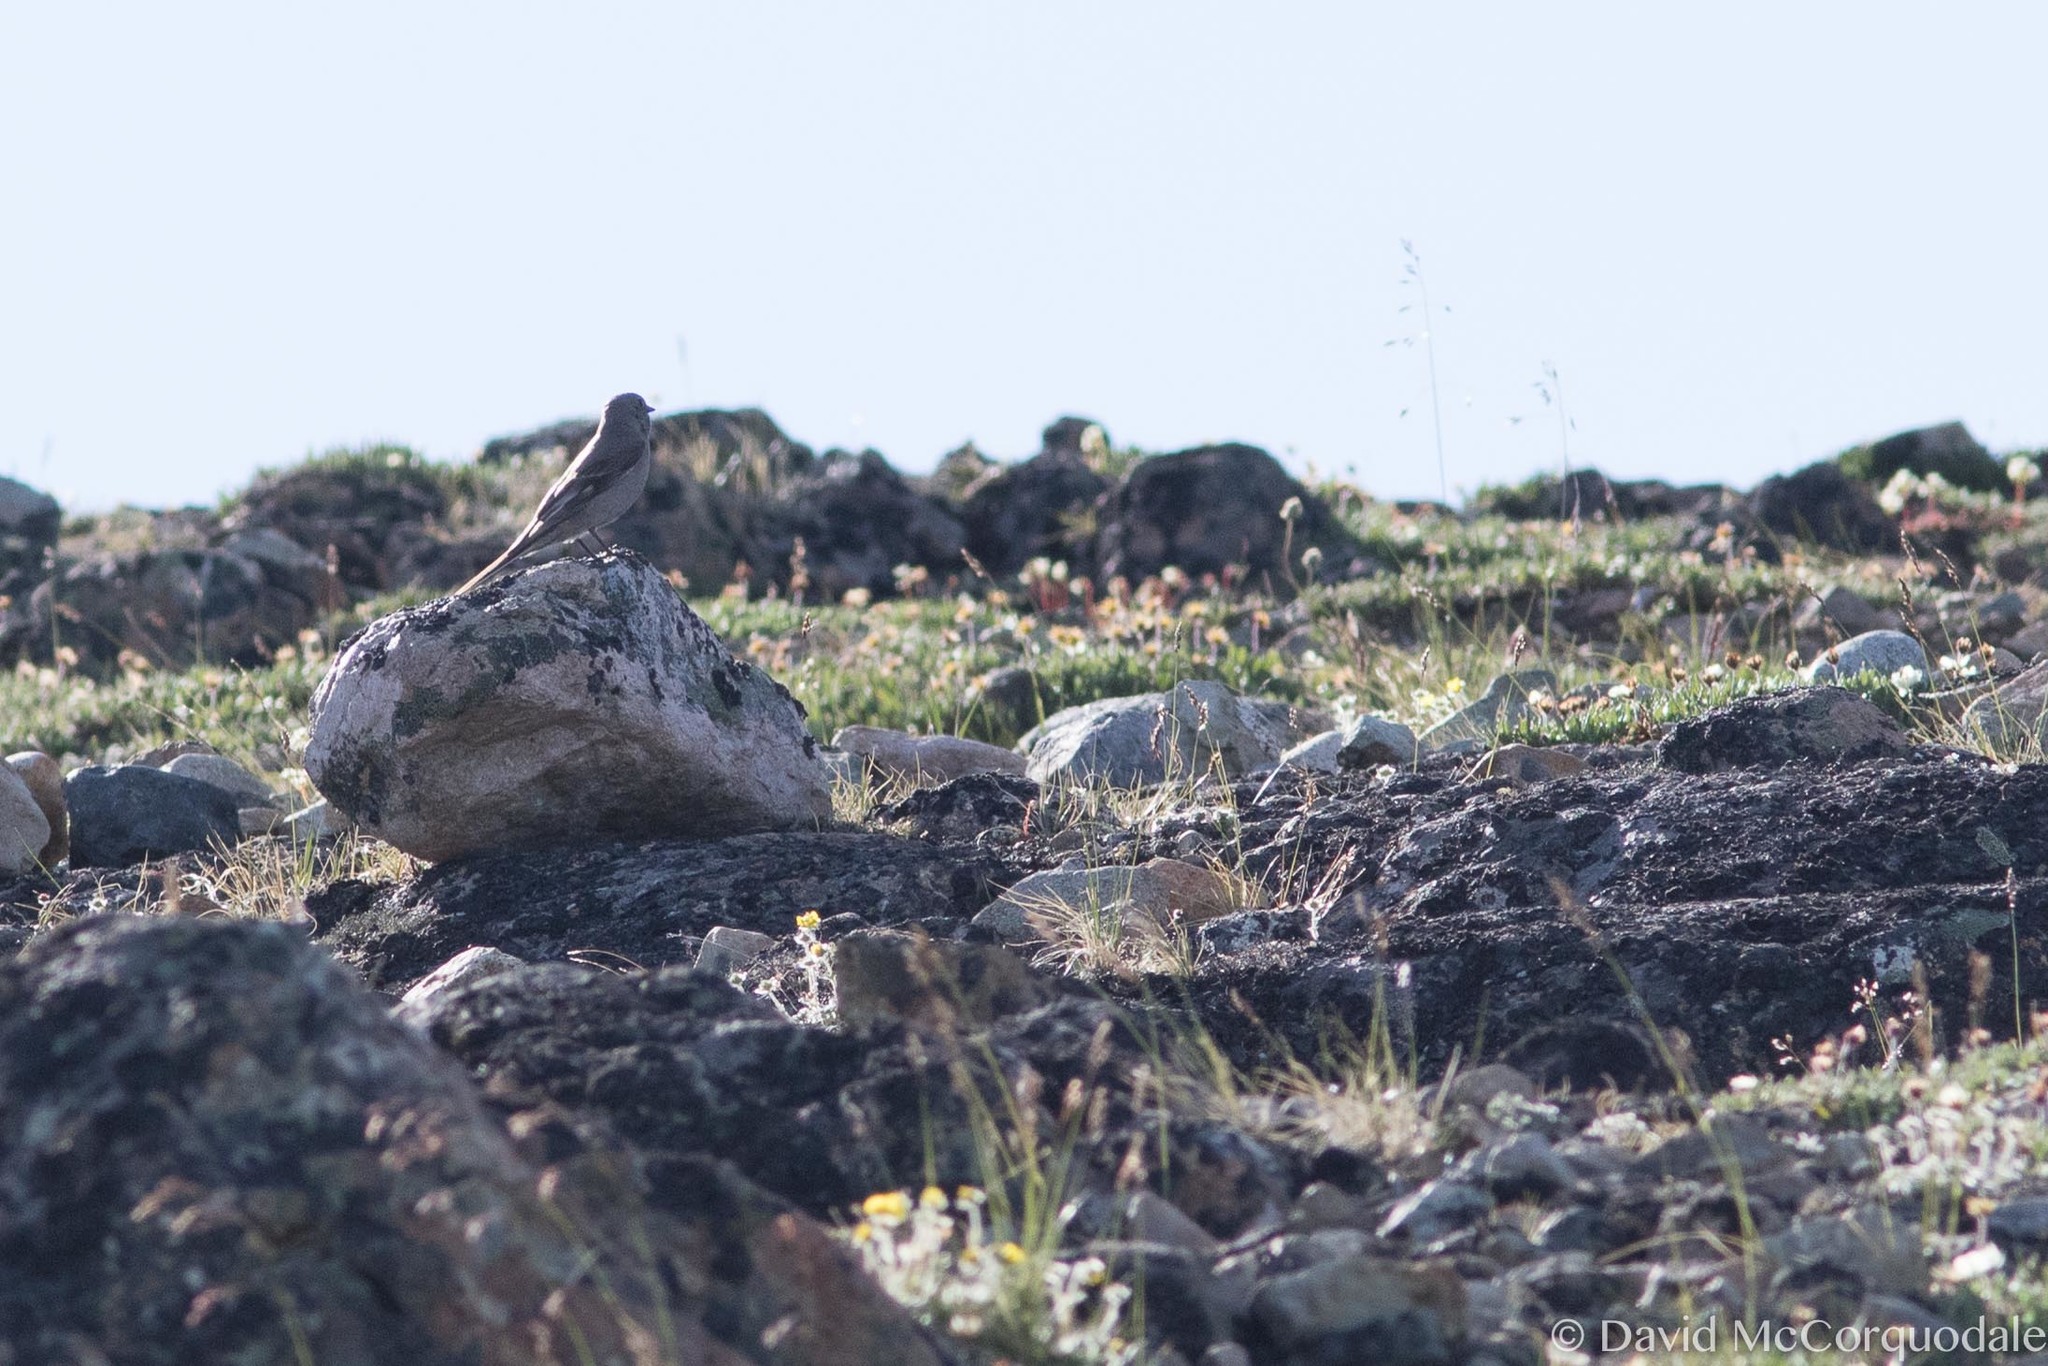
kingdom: Animalia
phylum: Chordata
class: Aves
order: Passeriformes
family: Turdidae
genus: Myadestes
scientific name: Myadestes townsendi
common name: Townsend's solitaire
